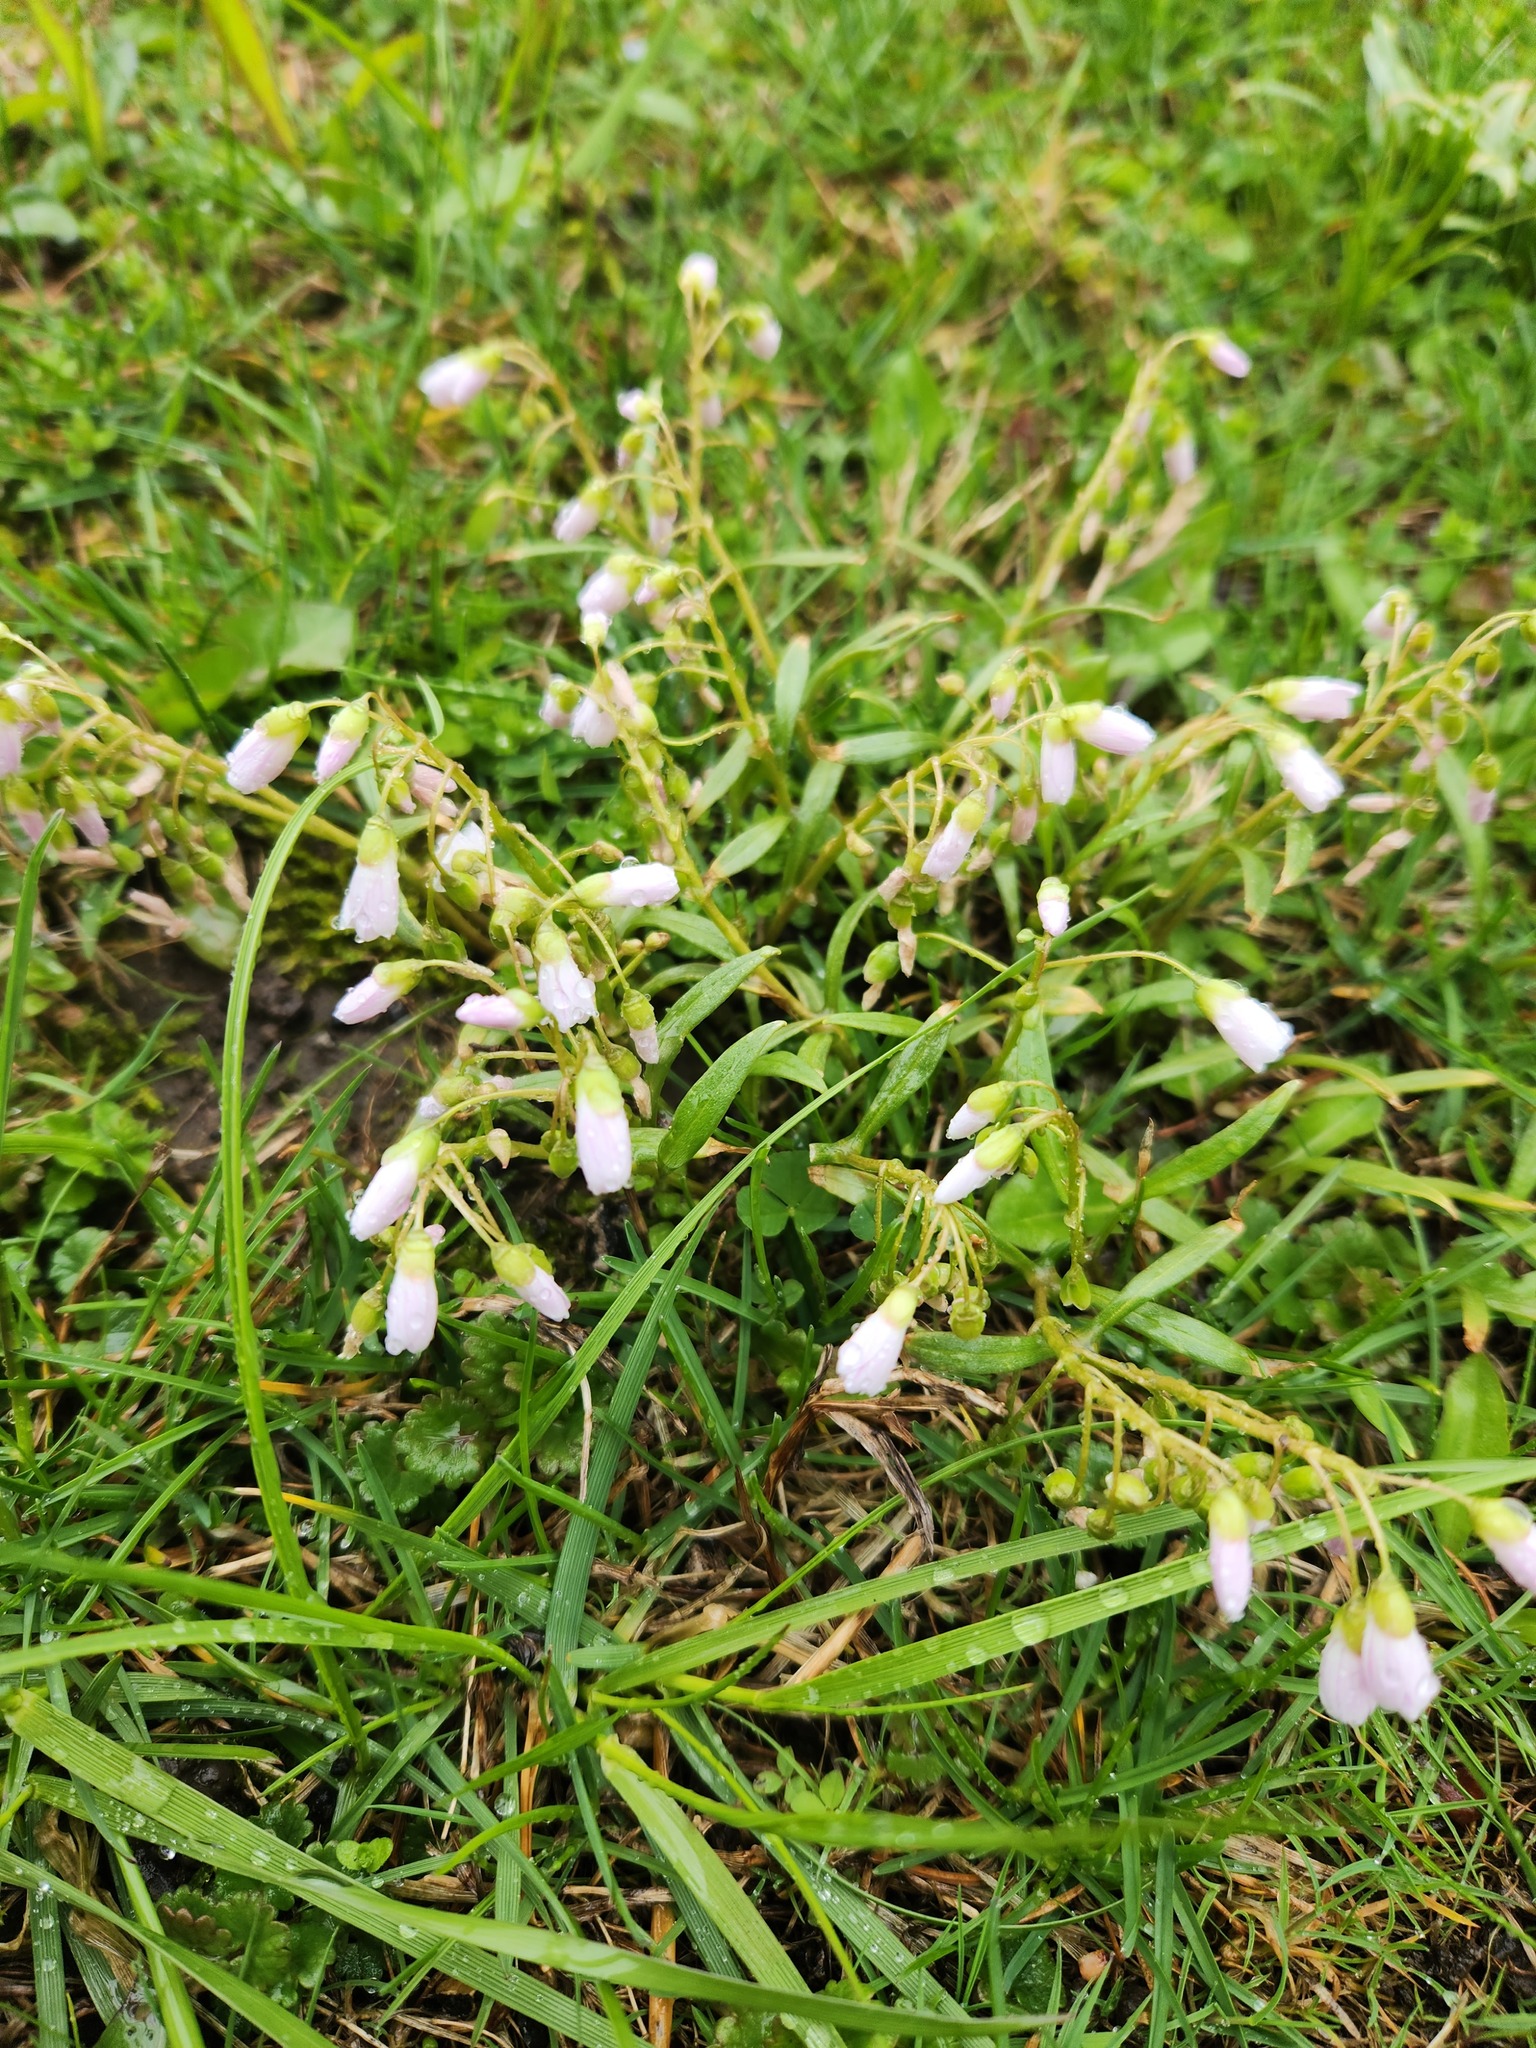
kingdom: Plantae
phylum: Tracheophyta
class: Magnoliopsida
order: Caryophyllales
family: Montiaceae
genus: Claytonia
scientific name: Claytonia virginica
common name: Virginia springbeauty
